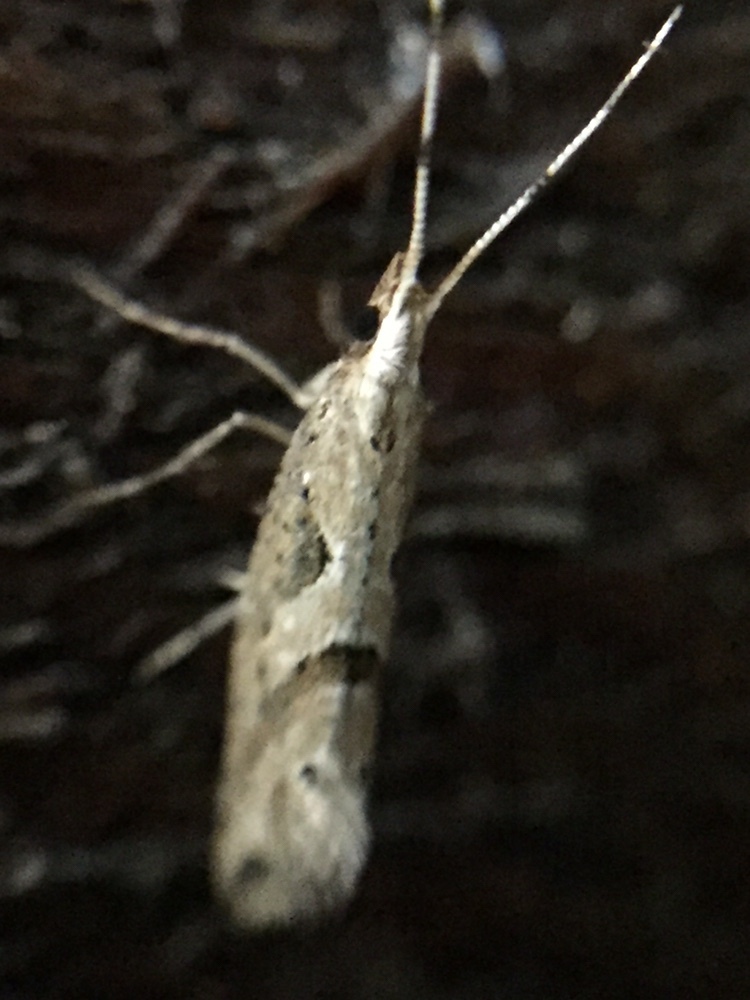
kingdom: Animalia
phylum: Arthropoda
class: Insecta
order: Lepidoptera
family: Plutellidae
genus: Leuroperna
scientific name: Leuroperna sera
